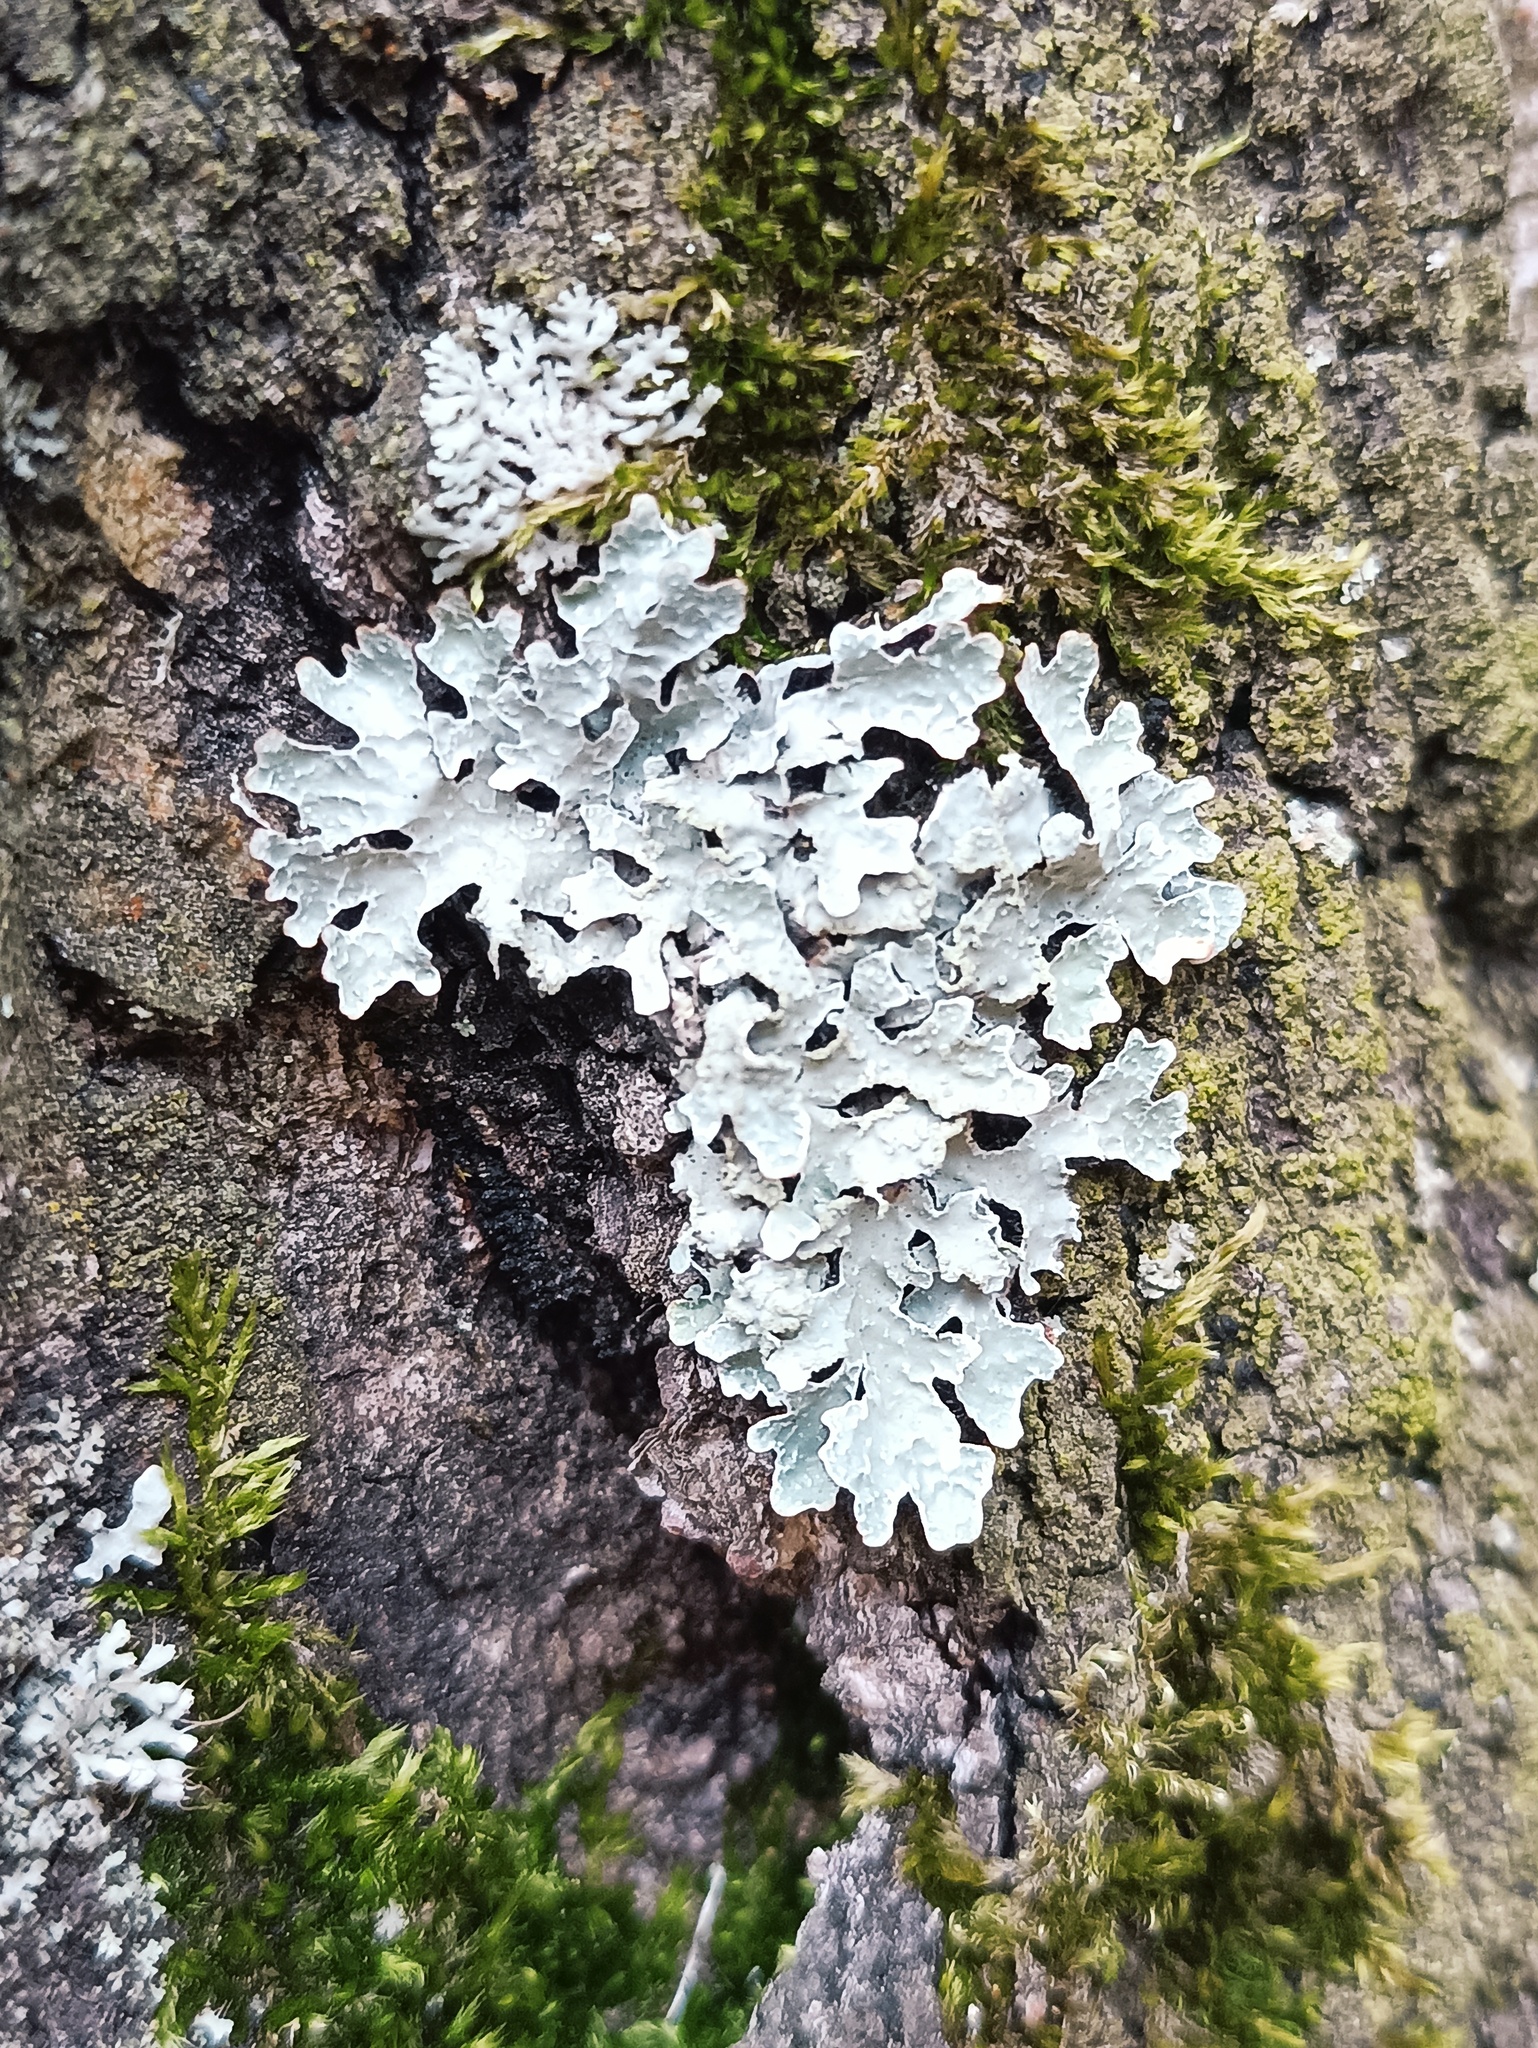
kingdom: Fungi
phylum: Ascomycota
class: Lecanoromycetes
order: Lecanorales
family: Parmeliaceae
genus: Parmelia
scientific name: Parmelia sulcata
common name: Netted shield lichen
